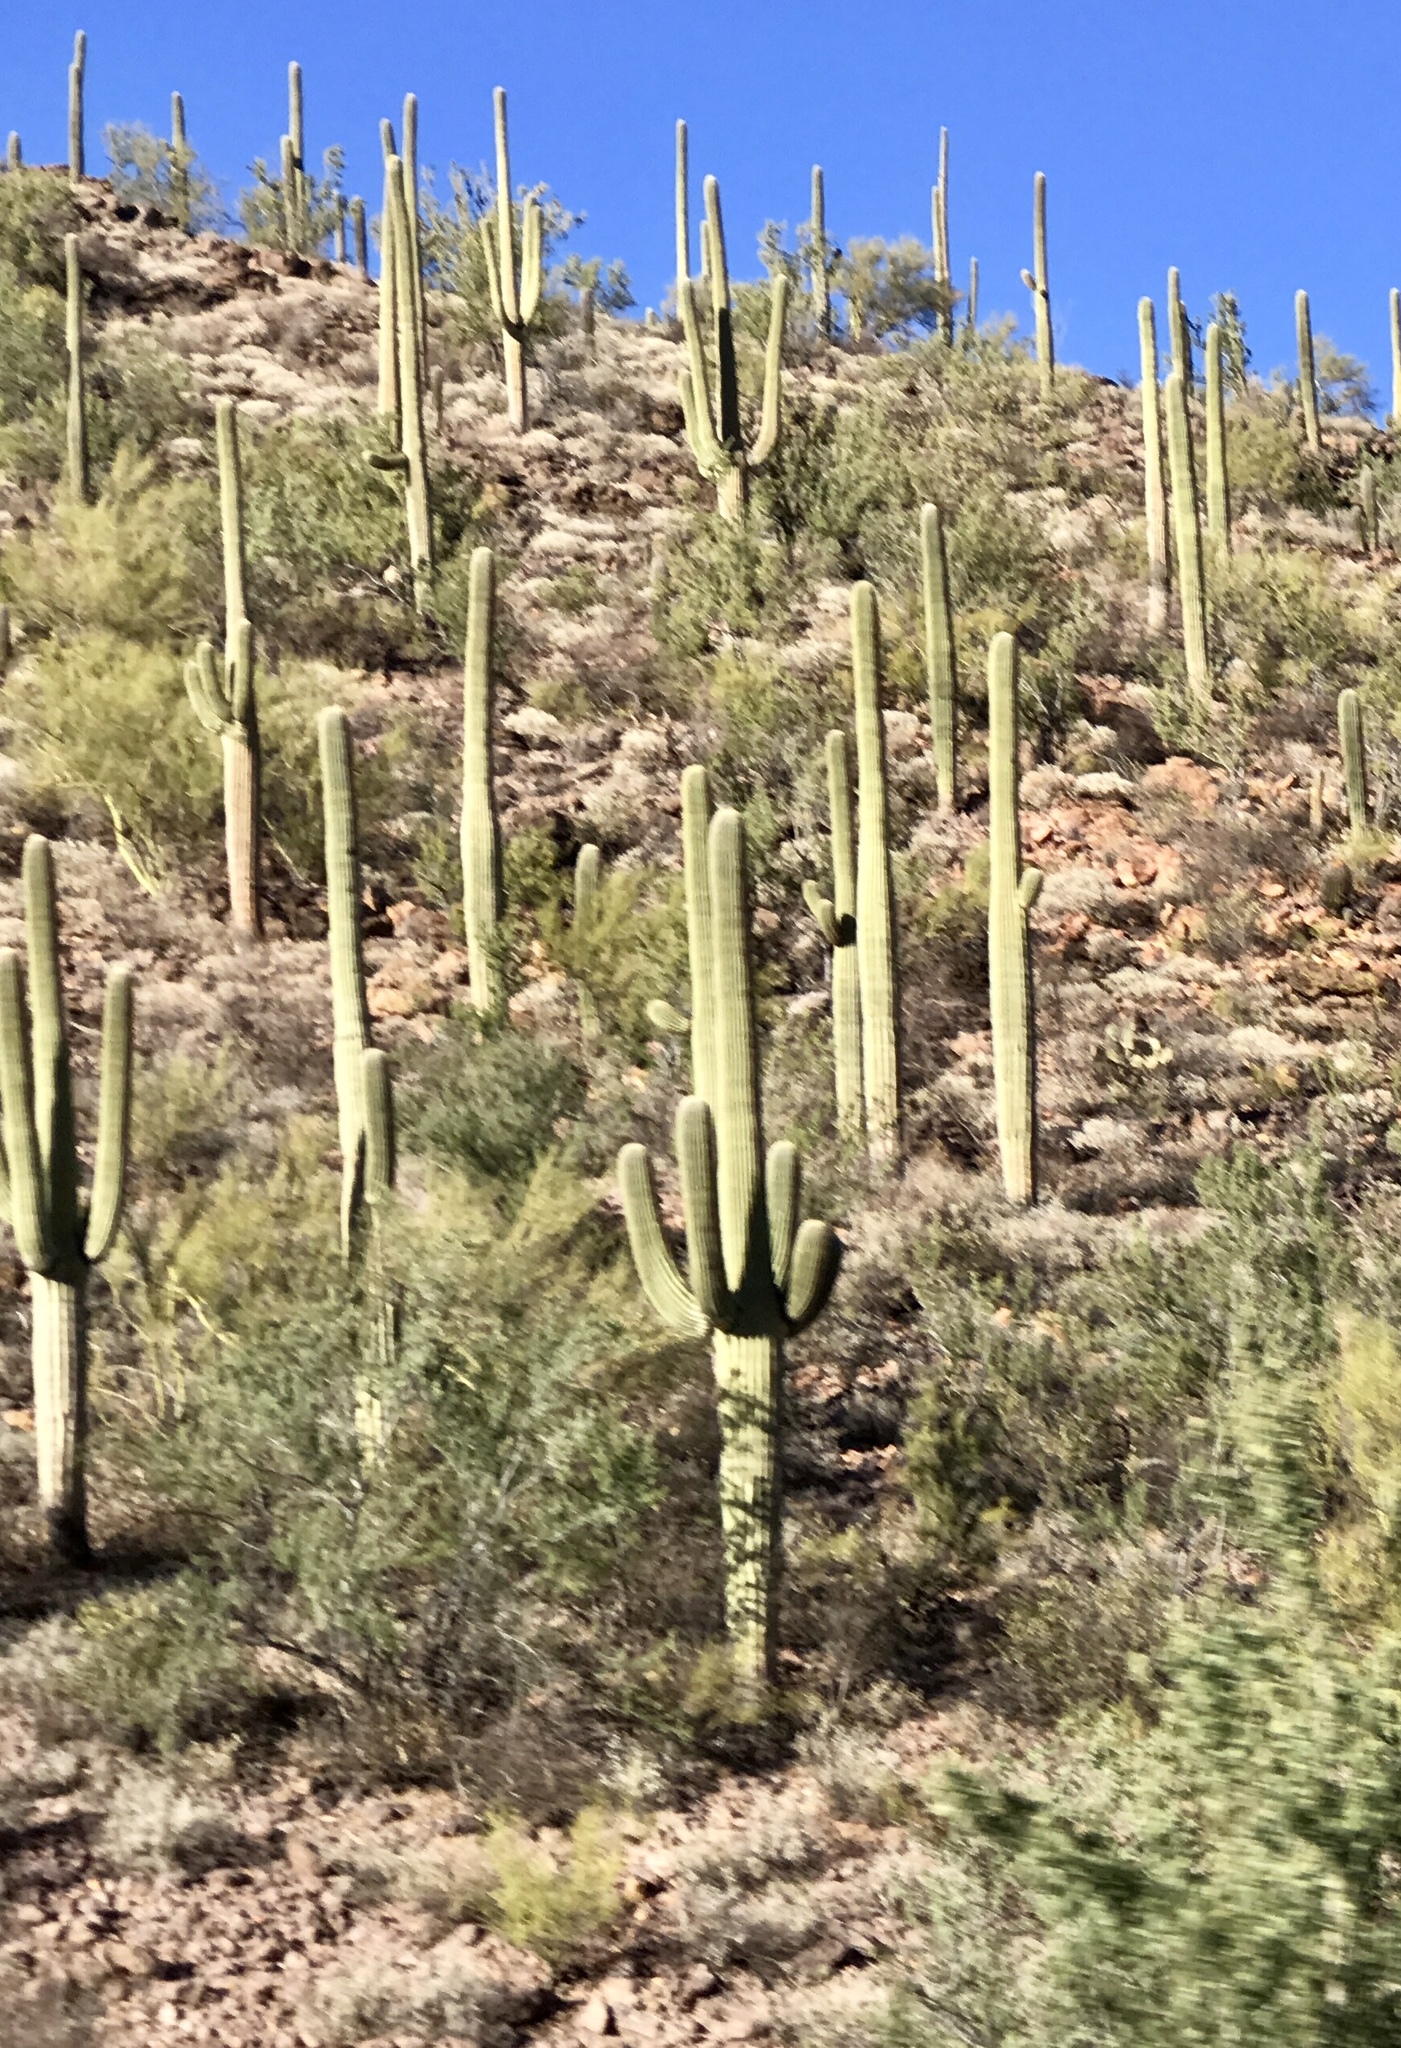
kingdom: Plantae
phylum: Tracheophyta
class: Magnoliopsida
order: Caryophyllales
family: Cactaceae
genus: Carnegiea
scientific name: Carnegiea gigantea
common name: Saguaro
